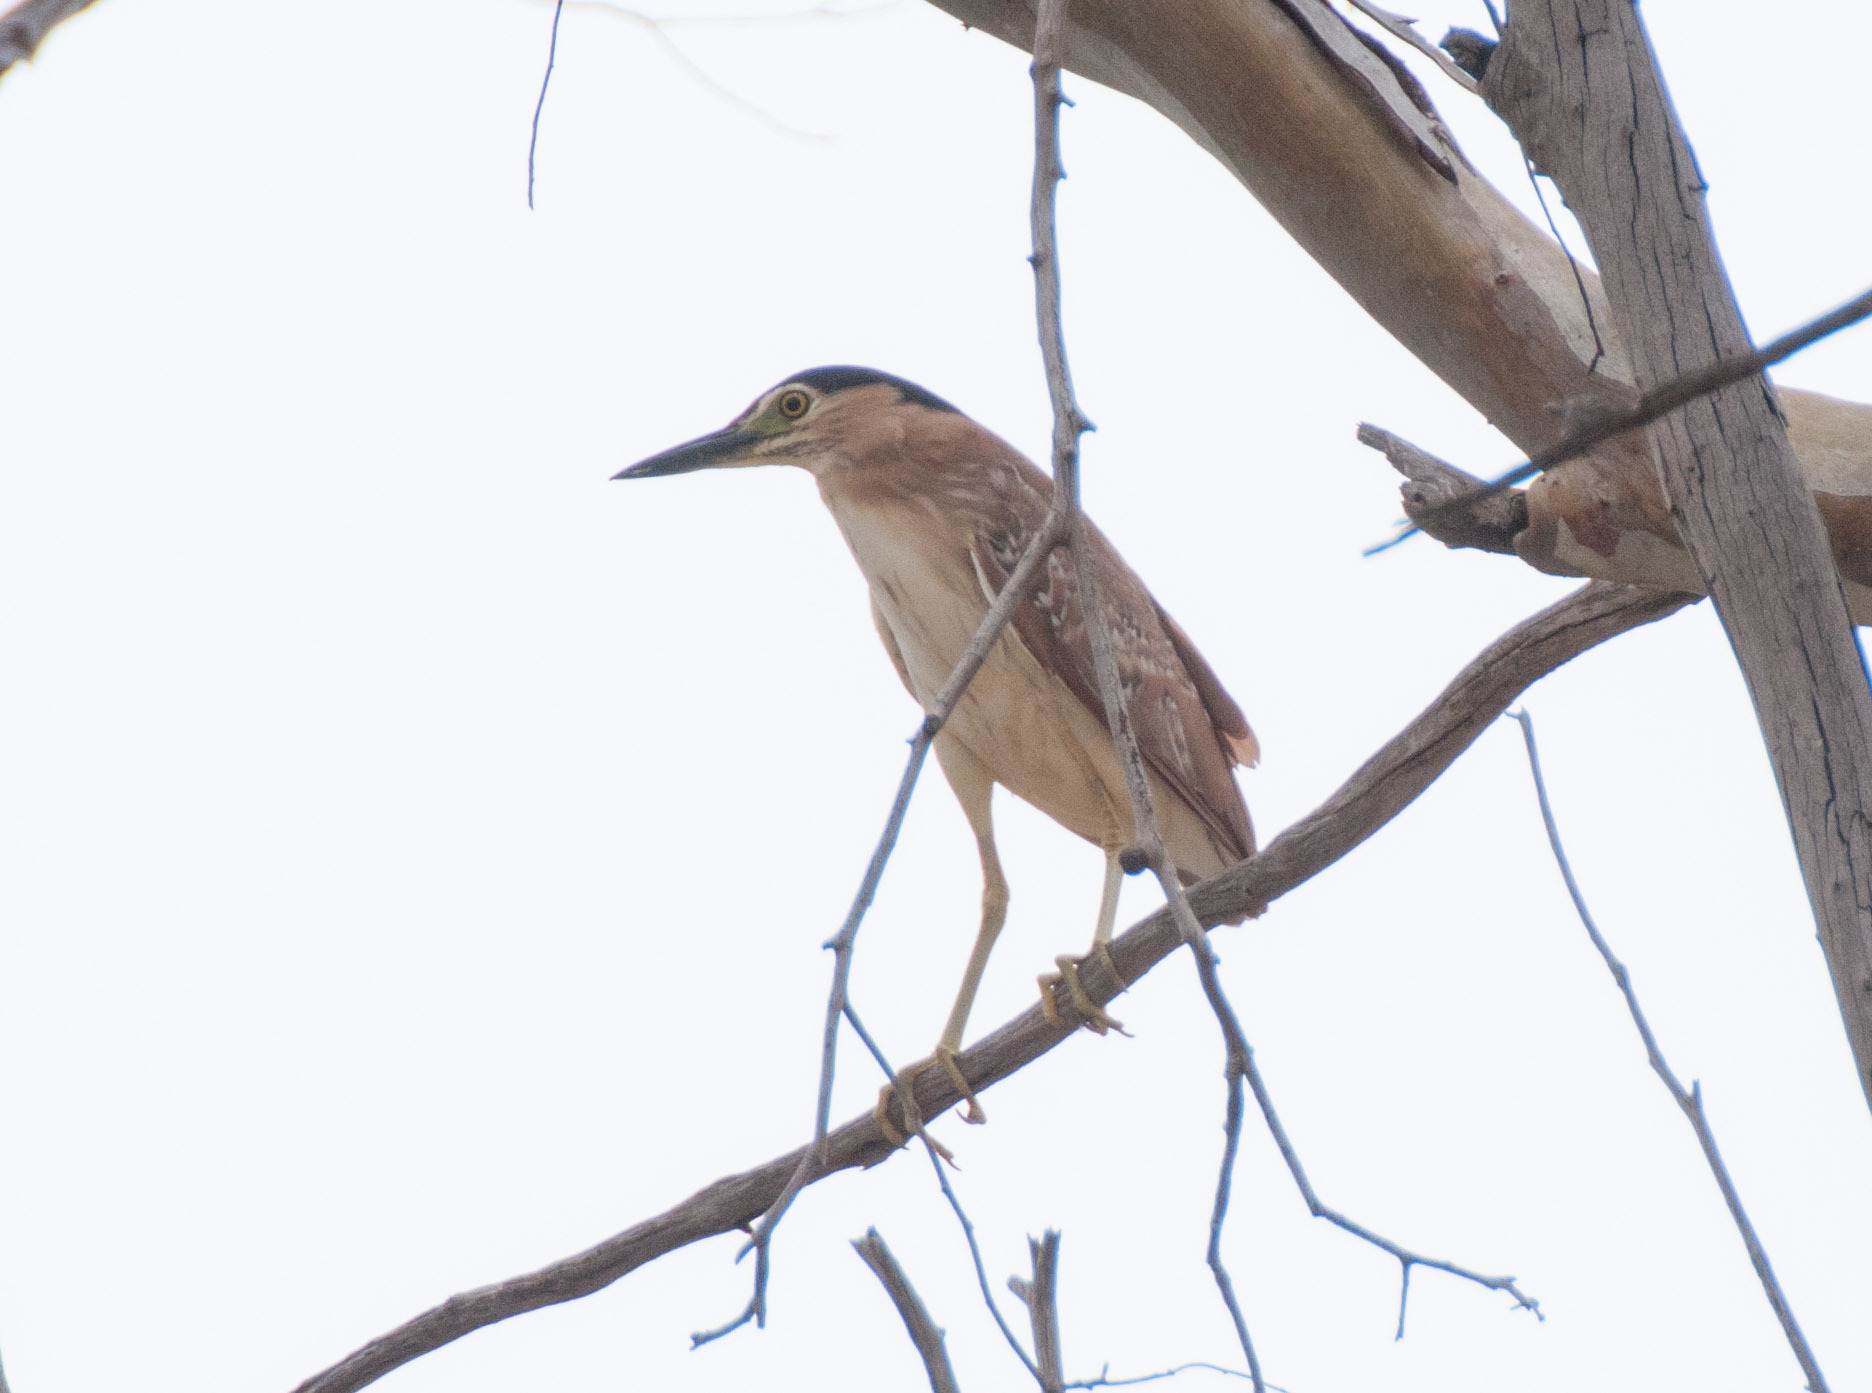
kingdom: Animalia
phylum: Chordata
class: Aves
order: Pelecaniformes
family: Ardeidae
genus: Nycticorax
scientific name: Nycticorax caledonicus
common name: Rufous night-heron
